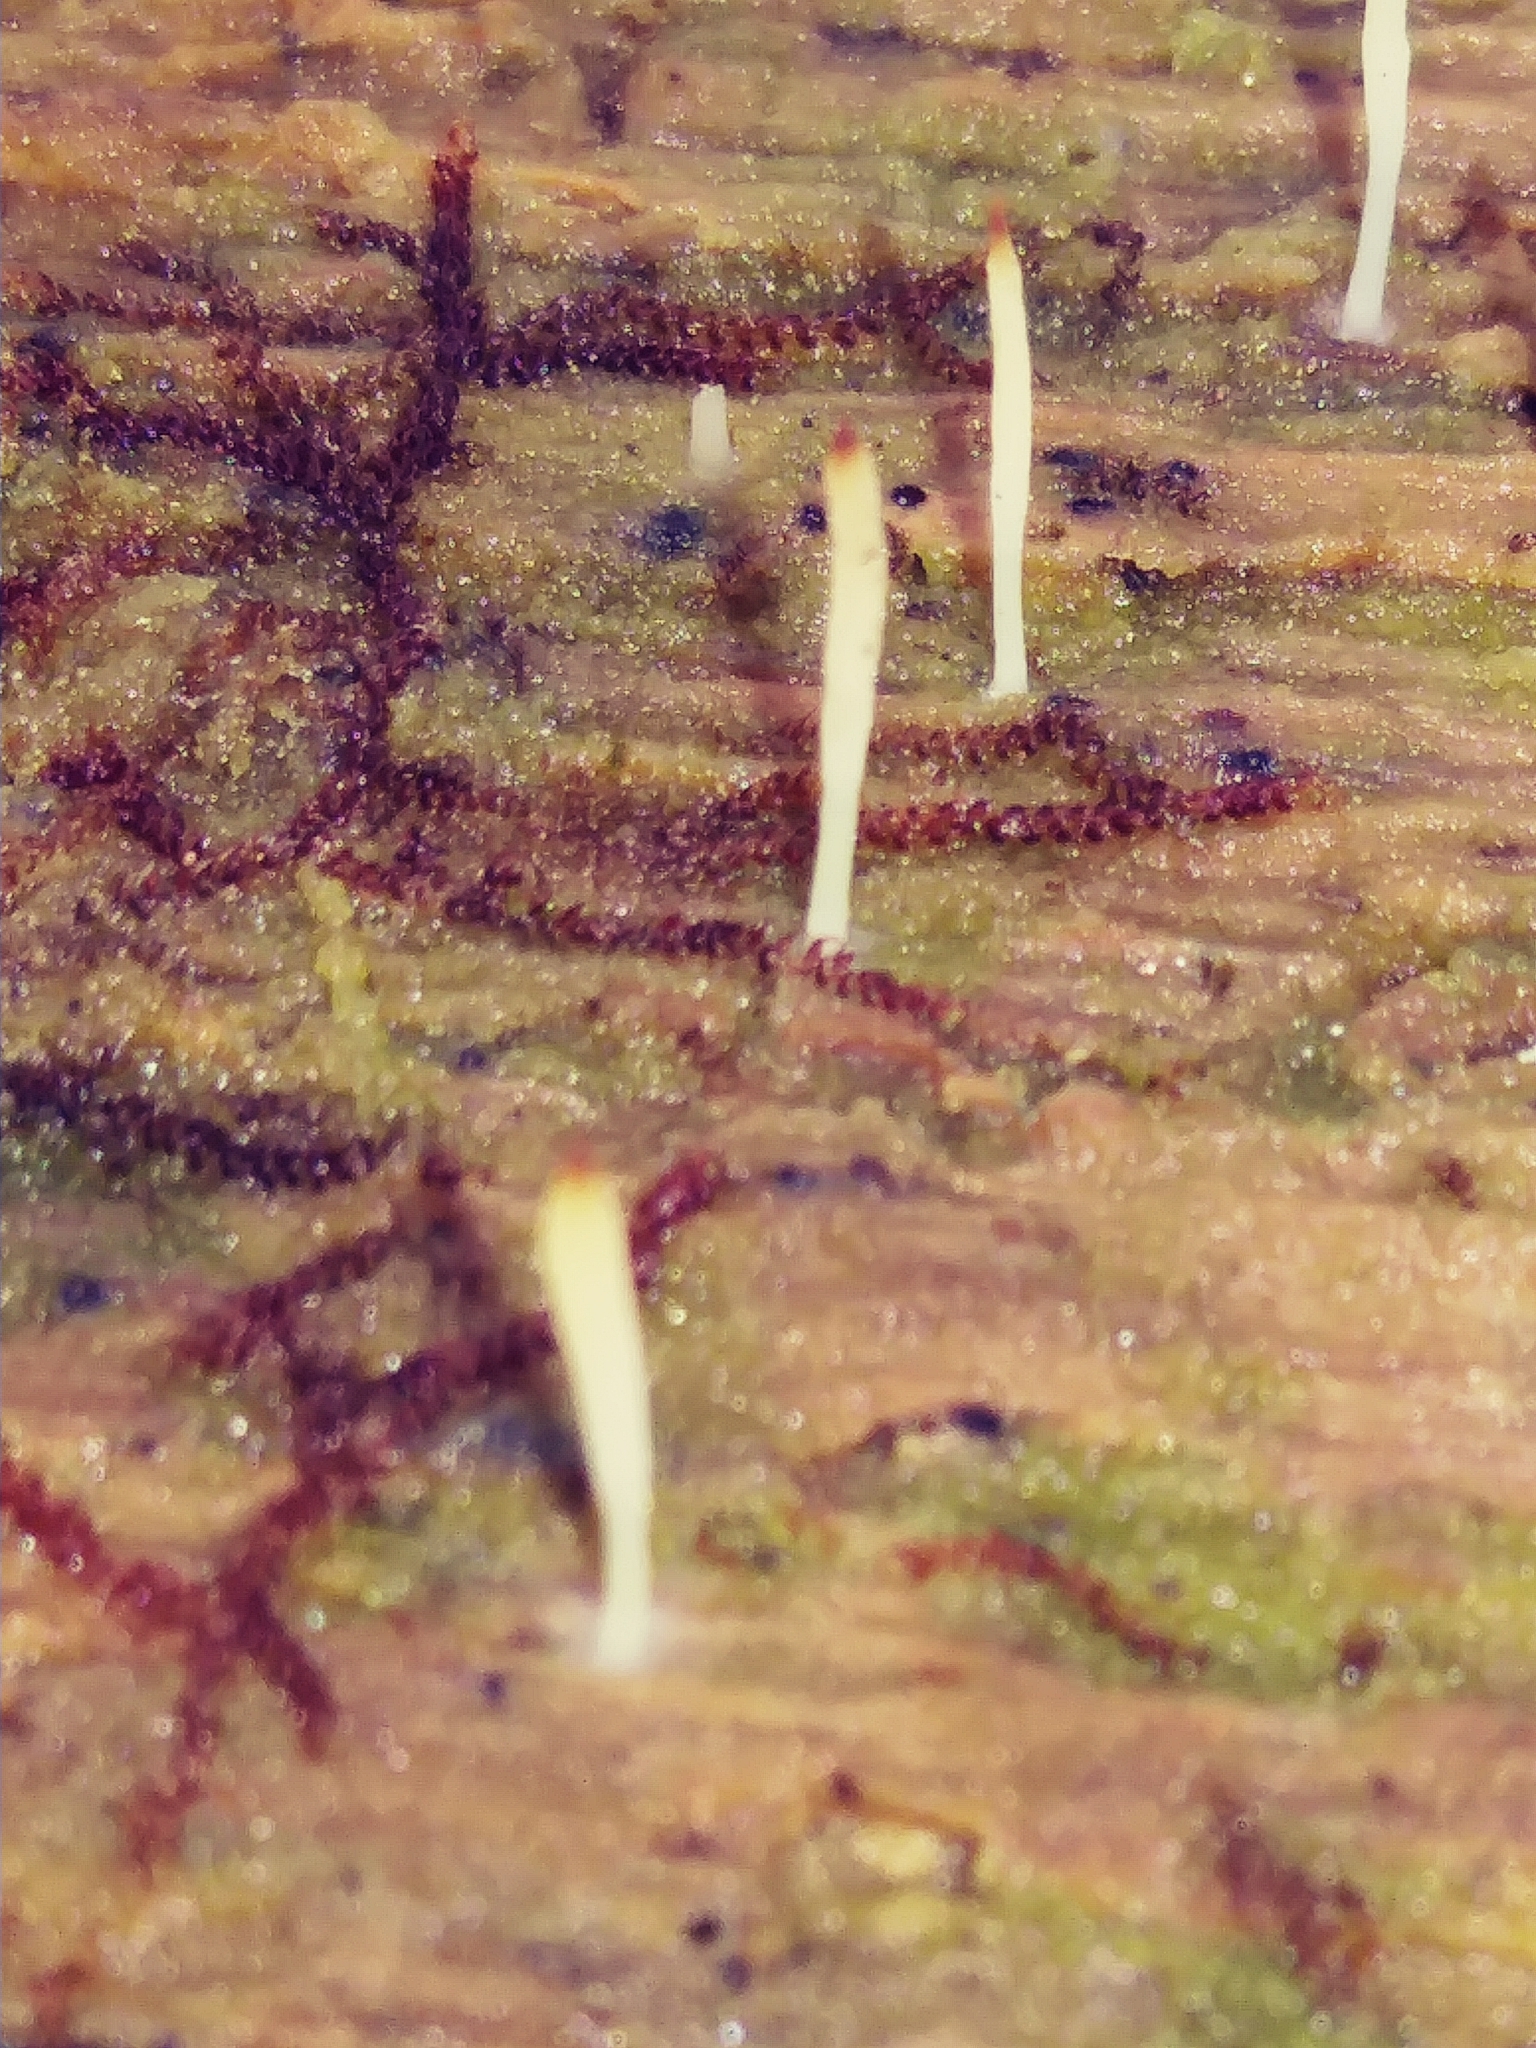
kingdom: Fungi
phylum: Basidiomycota
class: Agaricomycetes
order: Cantharellales
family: Hydnaceae
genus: Multiclavula
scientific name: Multiclavula mucida
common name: White green-algae coral
